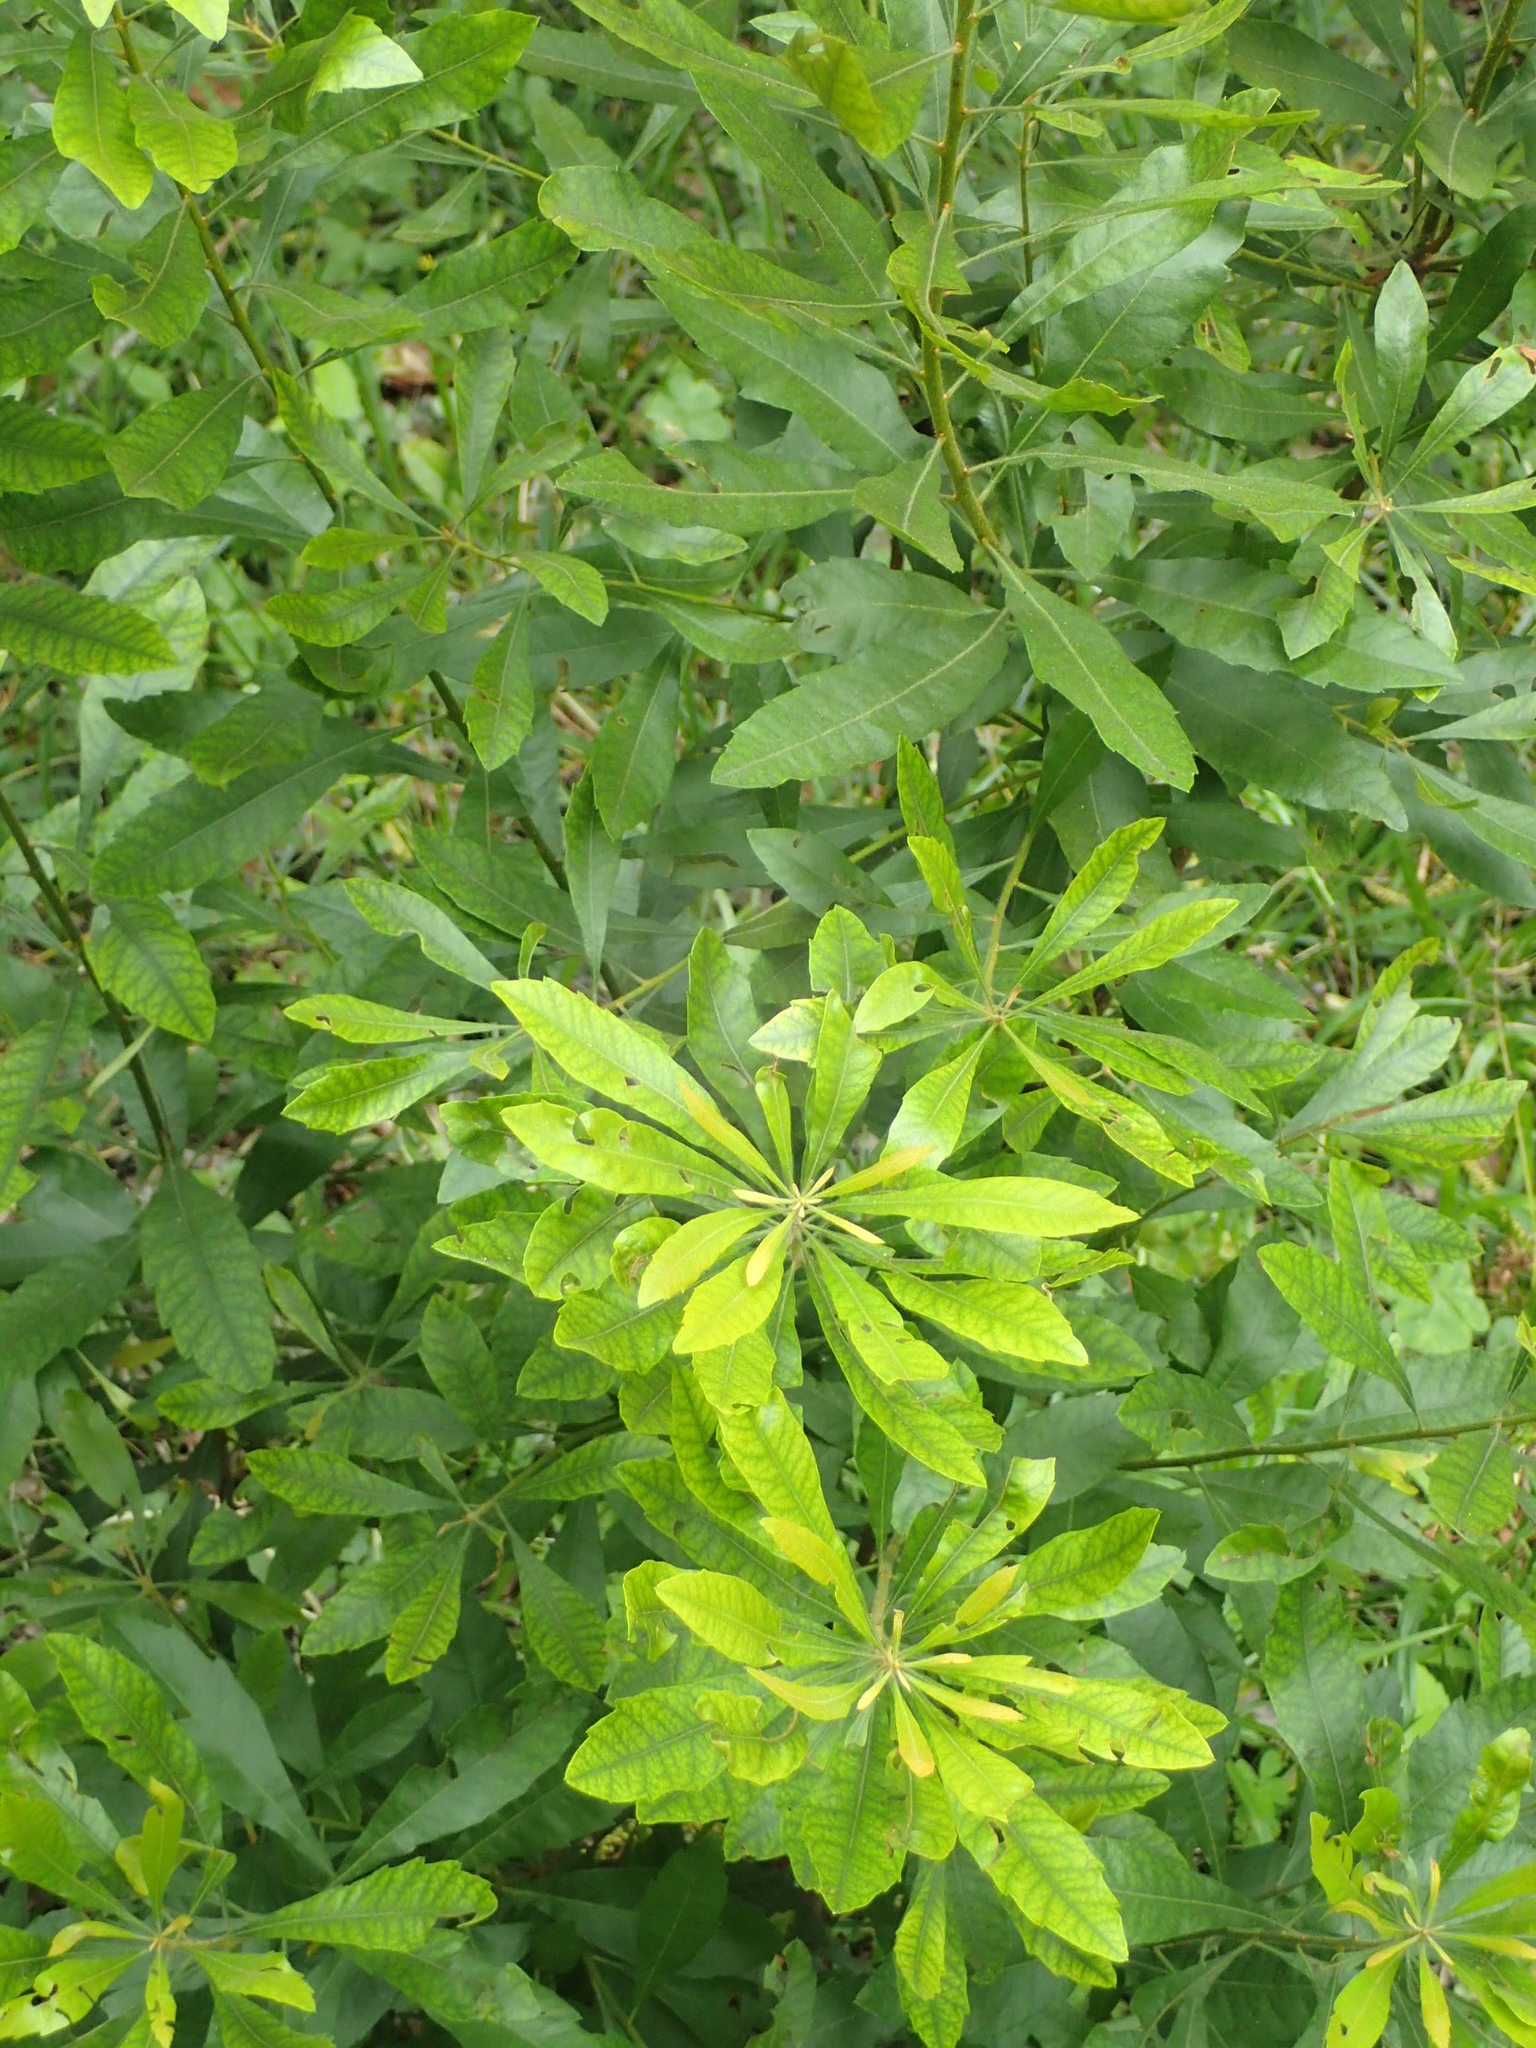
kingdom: Plantae
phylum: Tracheophyta
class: Magnoliopsida
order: Fagales
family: Myricaceae
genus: Morella
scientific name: Morella cerifera
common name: Wax myrtle
